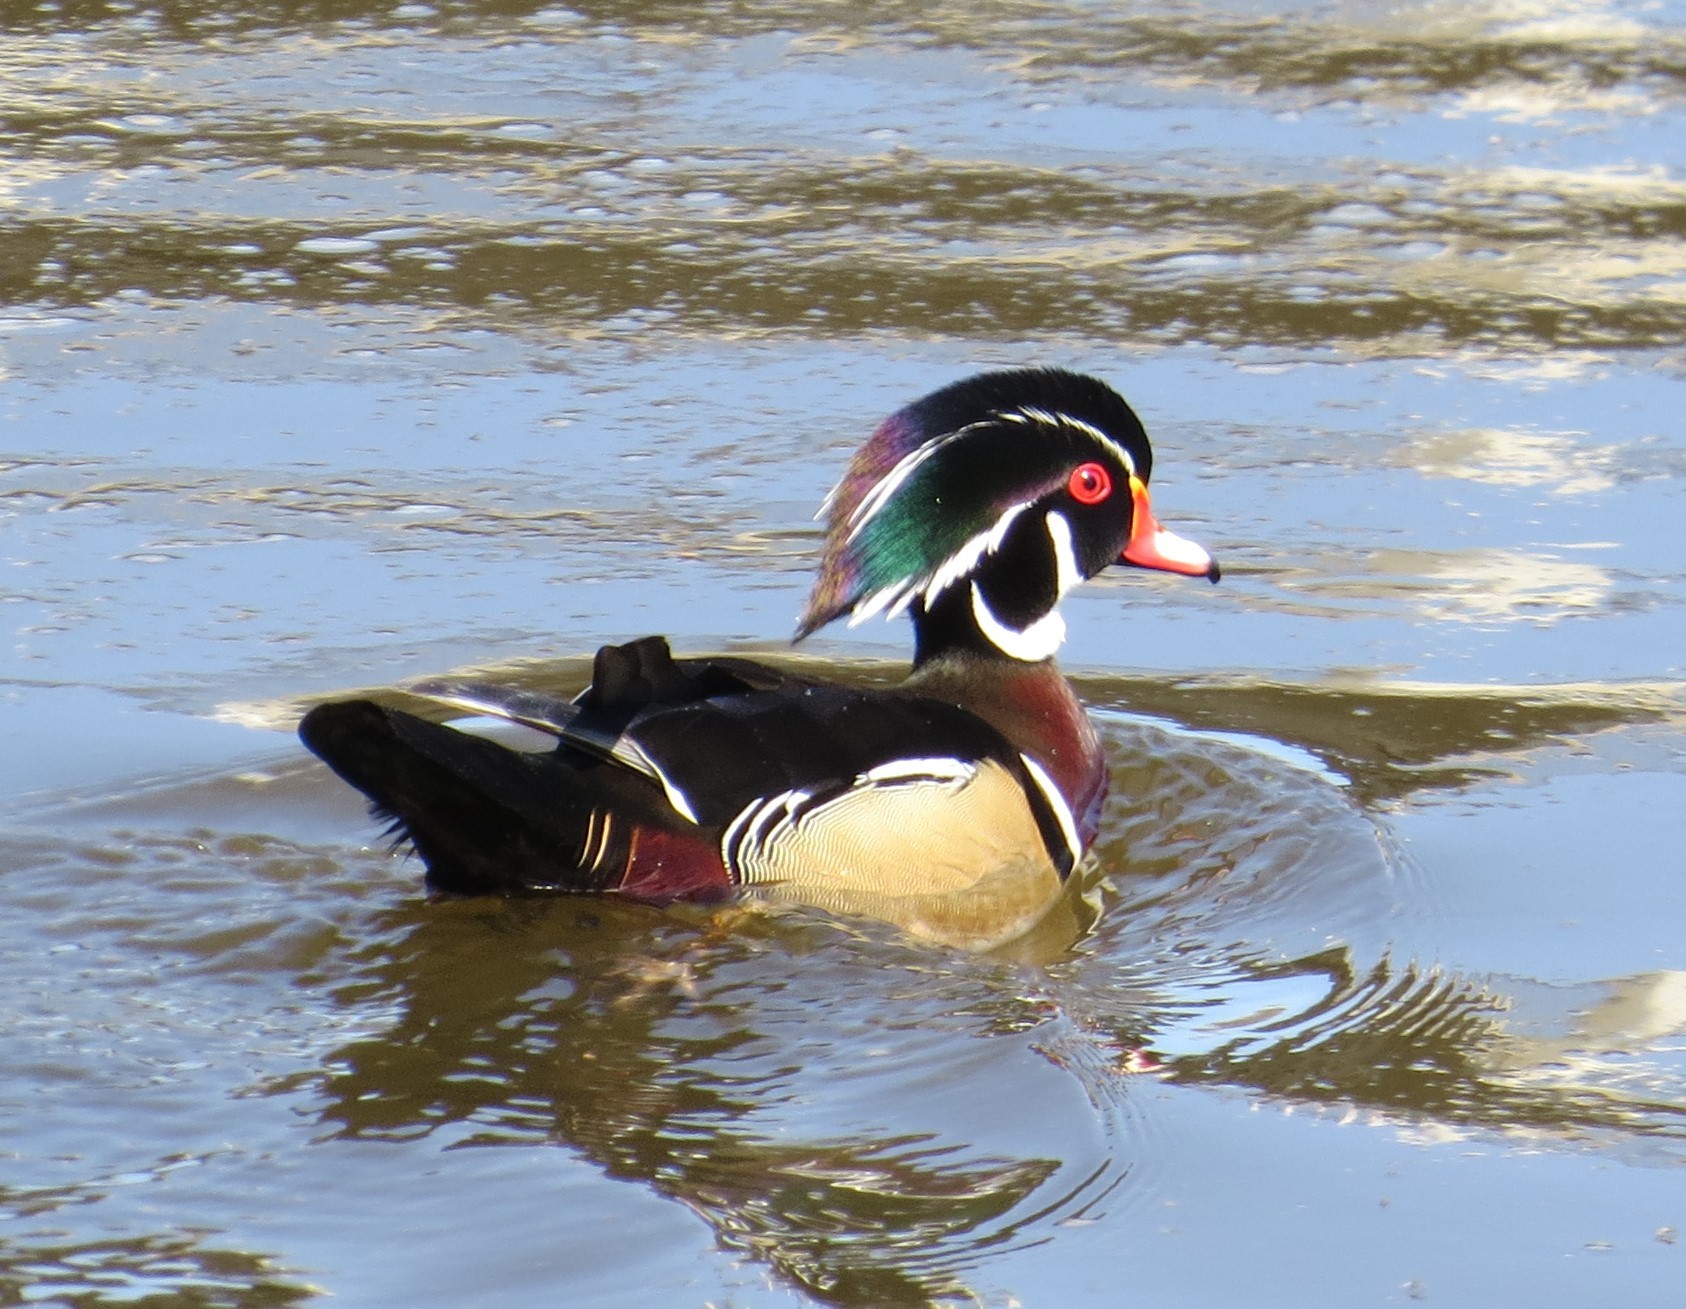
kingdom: Animalia
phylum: Chordata
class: Aves
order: Anseriformes
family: Anatidae
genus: Aix
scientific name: Aix sponsa
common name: Wood duck
